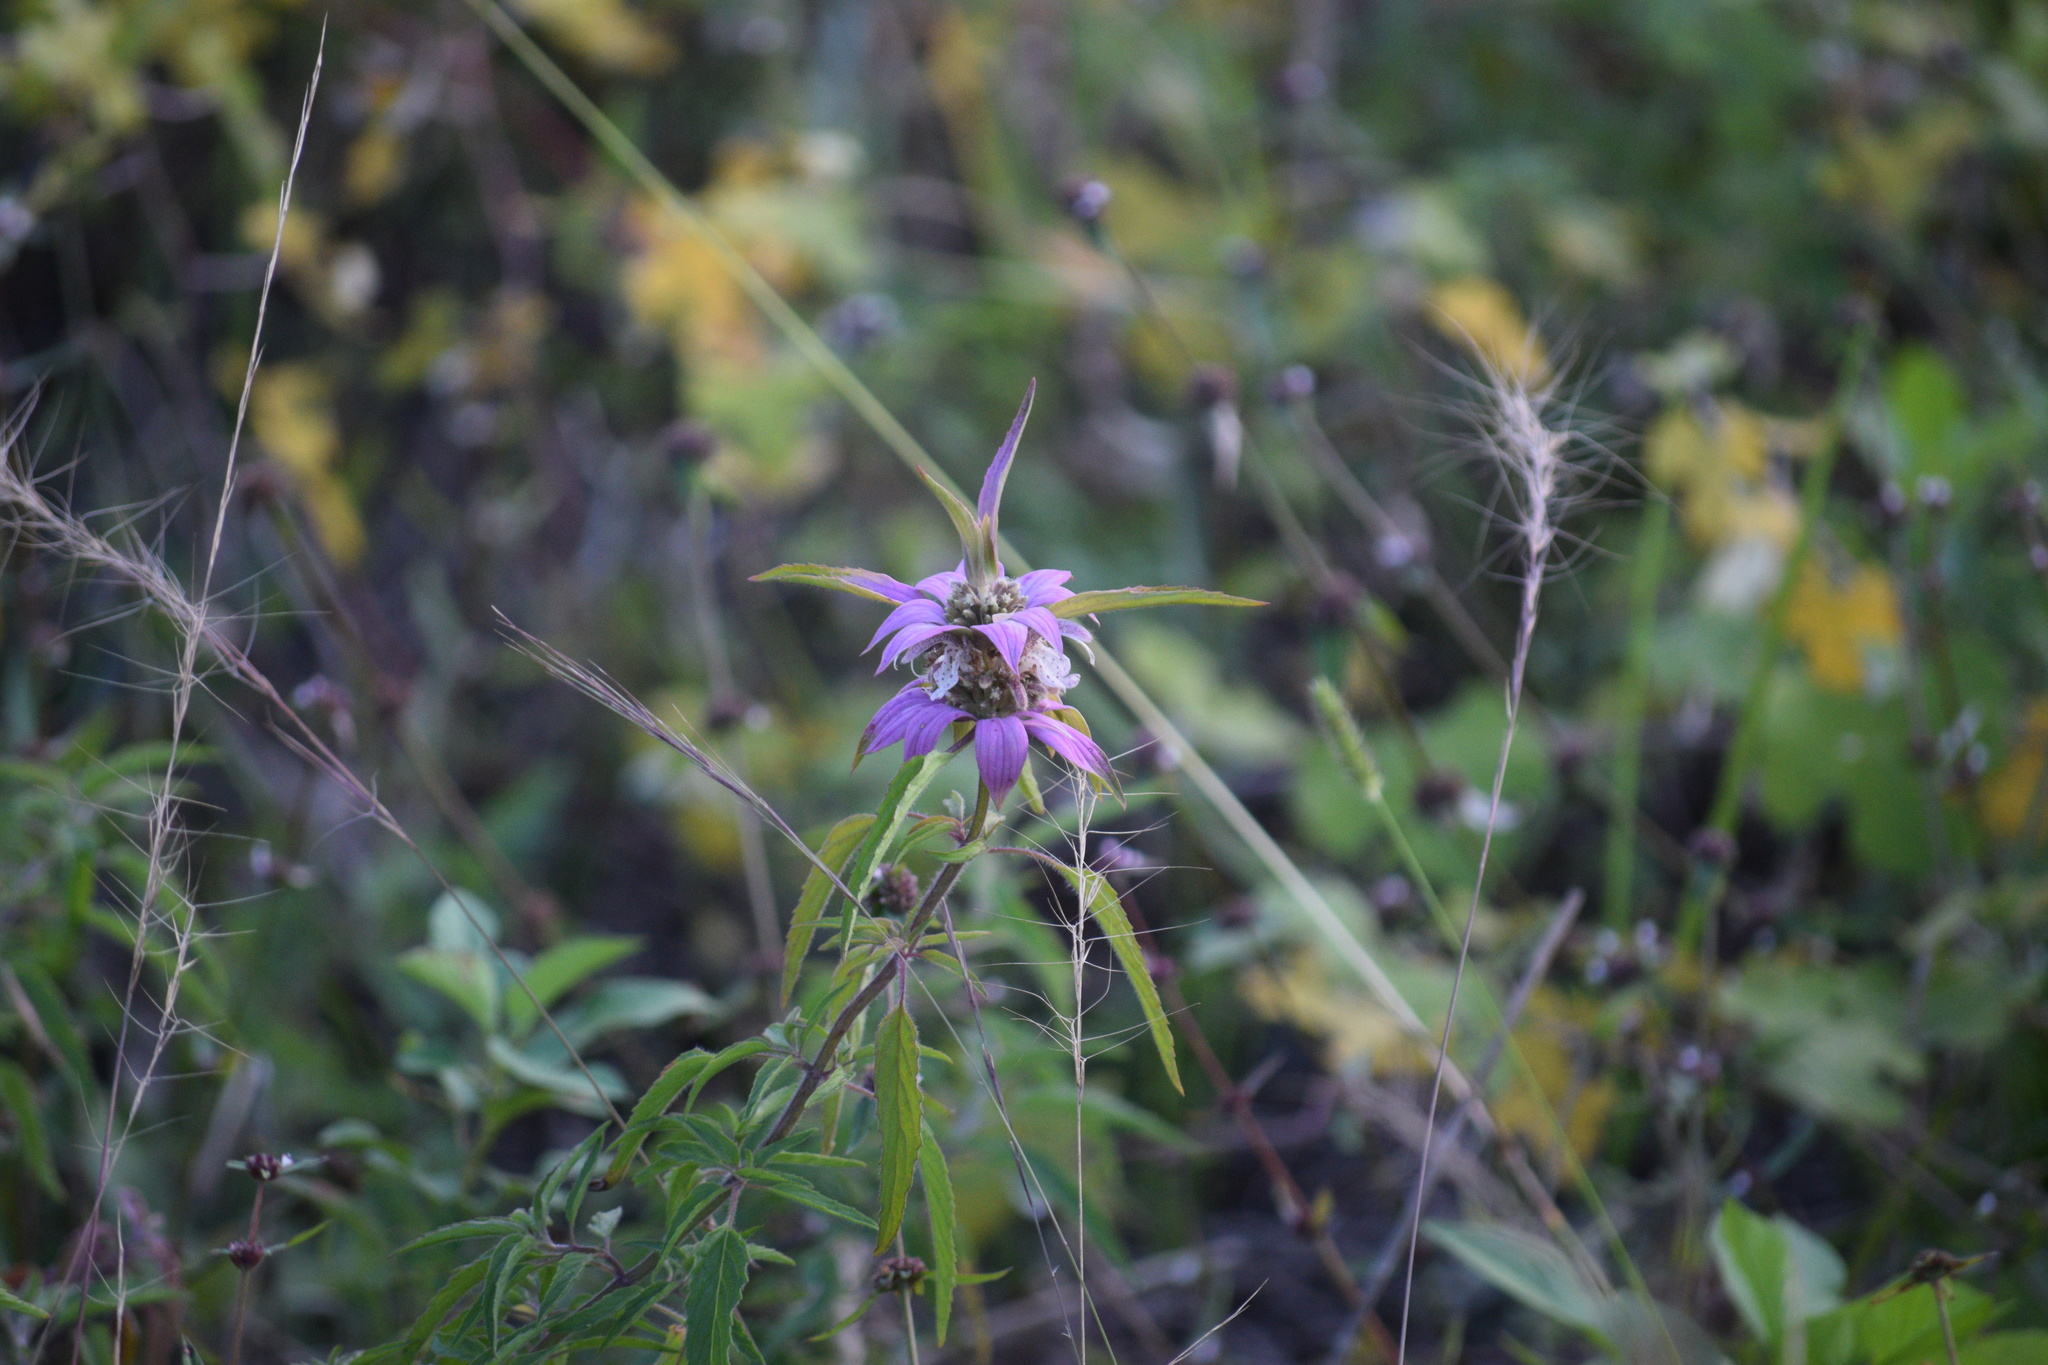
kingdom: Plantae
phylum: Tracheophyta
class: Magnoliopsida
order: Lamiales
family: Lamiaceae
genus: Monarda
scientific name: Monarda punctata
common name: Dotted monarda
